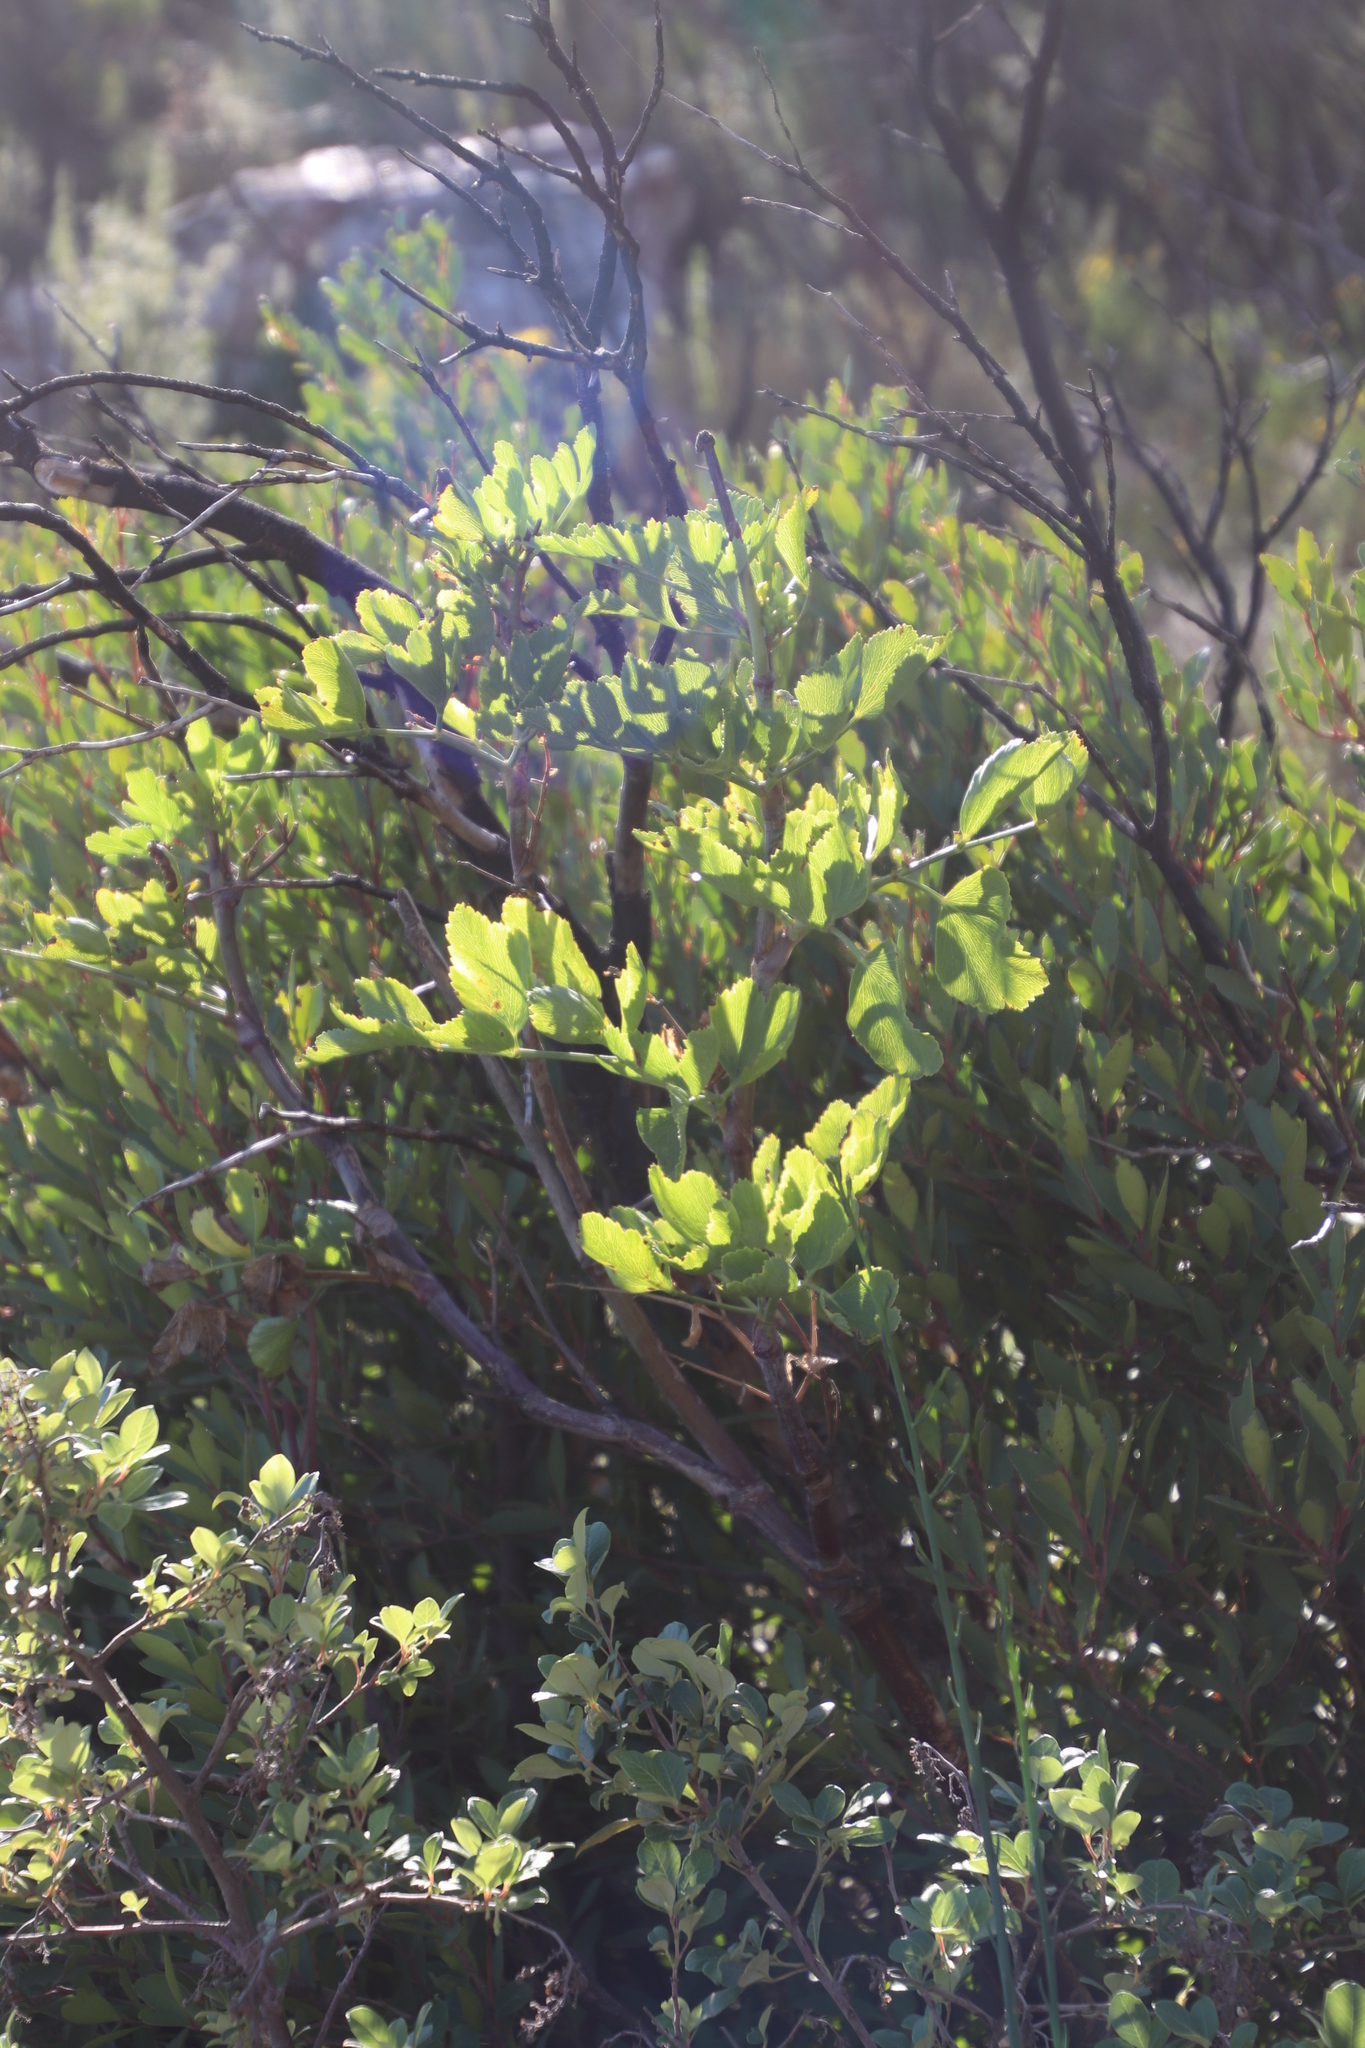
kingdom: Plantae
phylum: Tracheophyta
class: Magnoliopsida
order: Apiales
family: Apiaceae
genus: Notobubon
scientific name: Notobubon galbanum
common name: Blisterbush
